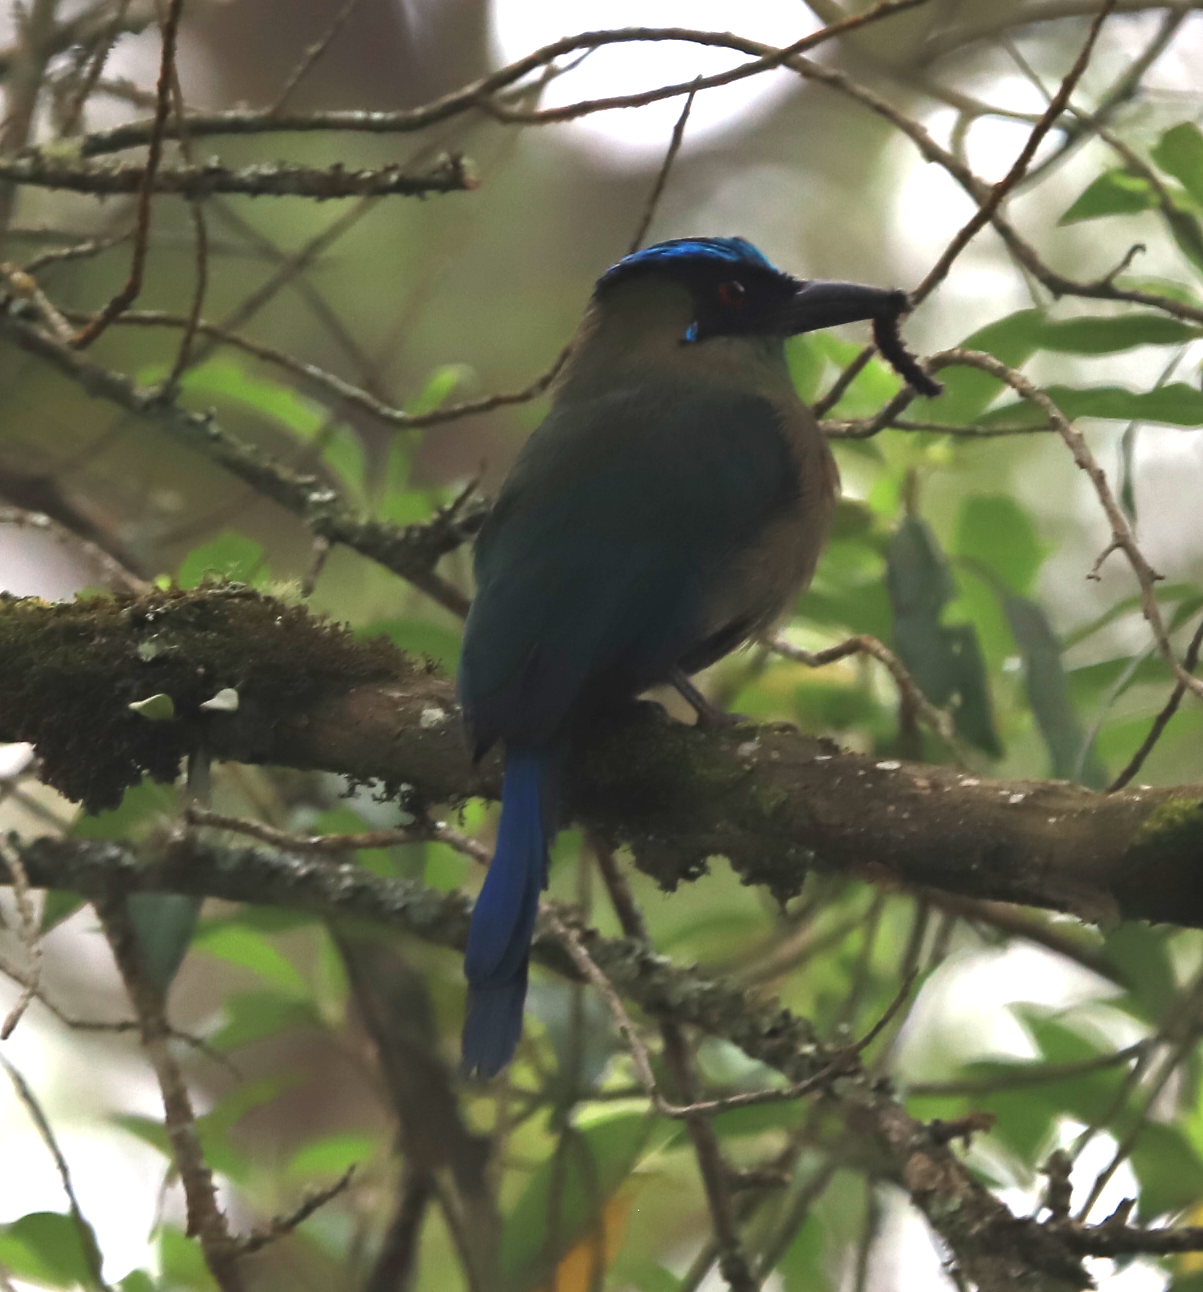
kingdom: Animalia
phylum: Chordata
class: Aves
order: Coraciiformes
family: Momotidae
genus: Momotus
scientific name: Momotus aequatorialis
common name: Andean motmot
